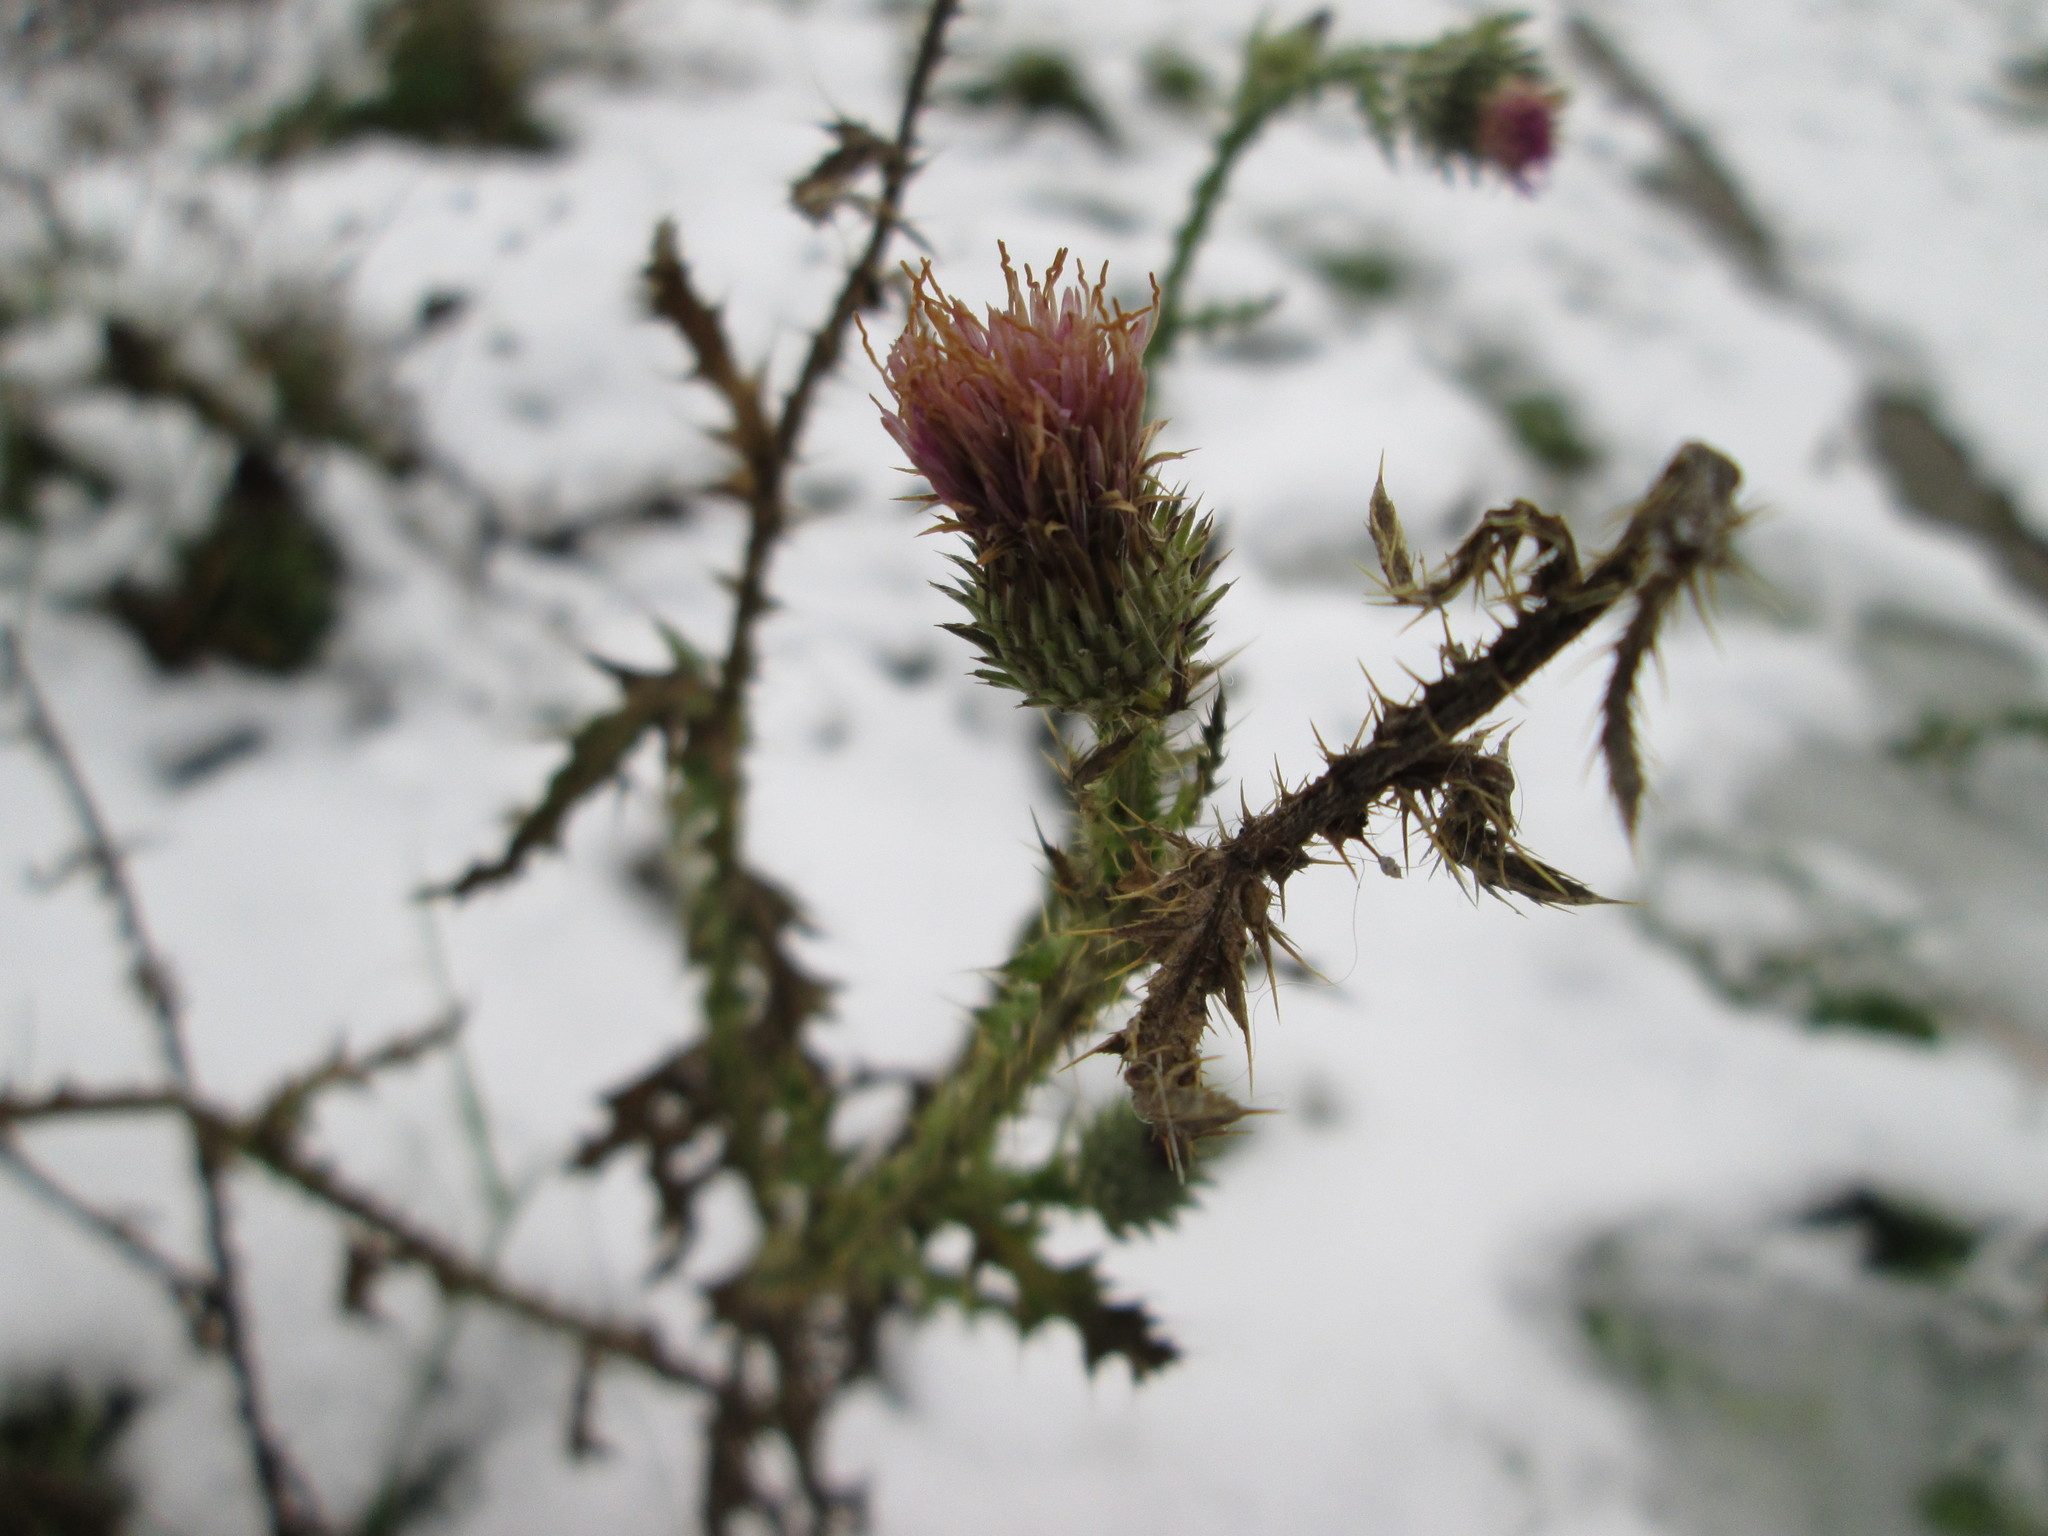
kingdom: Plantae
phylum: Tracheophyta
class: Magnoliopsida
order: Asterales
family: Asteraceae
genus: Carduus
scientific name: Carduus acanthoides
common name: Plumeless thistle
